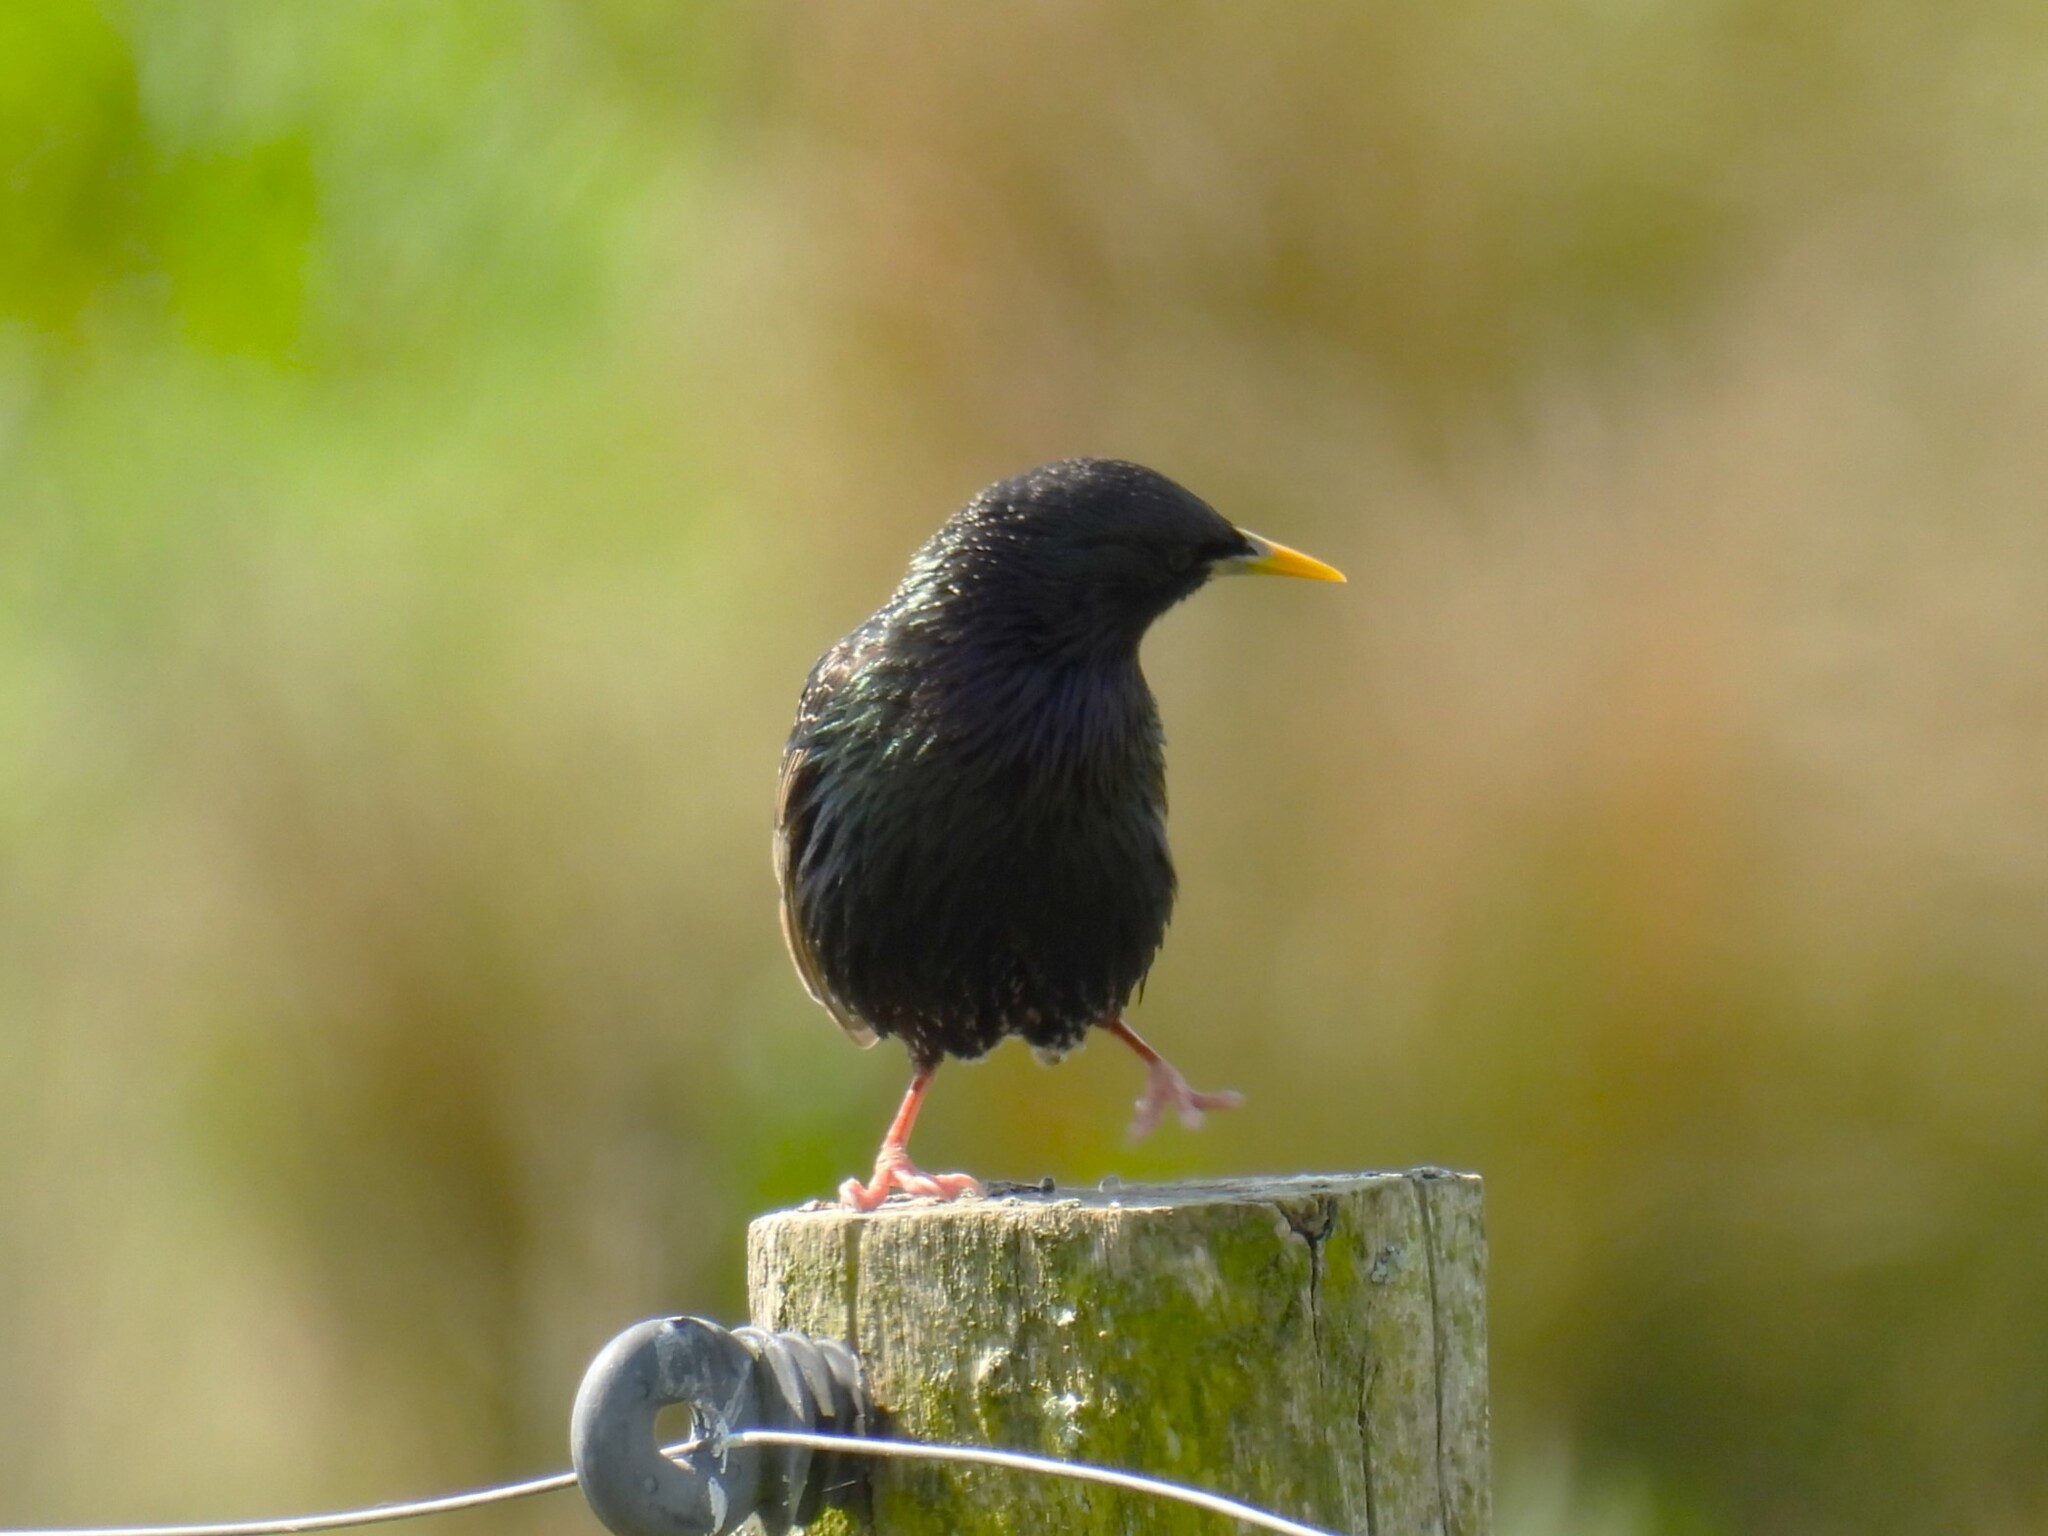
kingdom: Animalia
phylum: Chordata
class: Aves
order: Passeriformes
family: Sturnidae
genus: Sturnus
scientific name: Sturnus vulgaris
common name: Common starling
